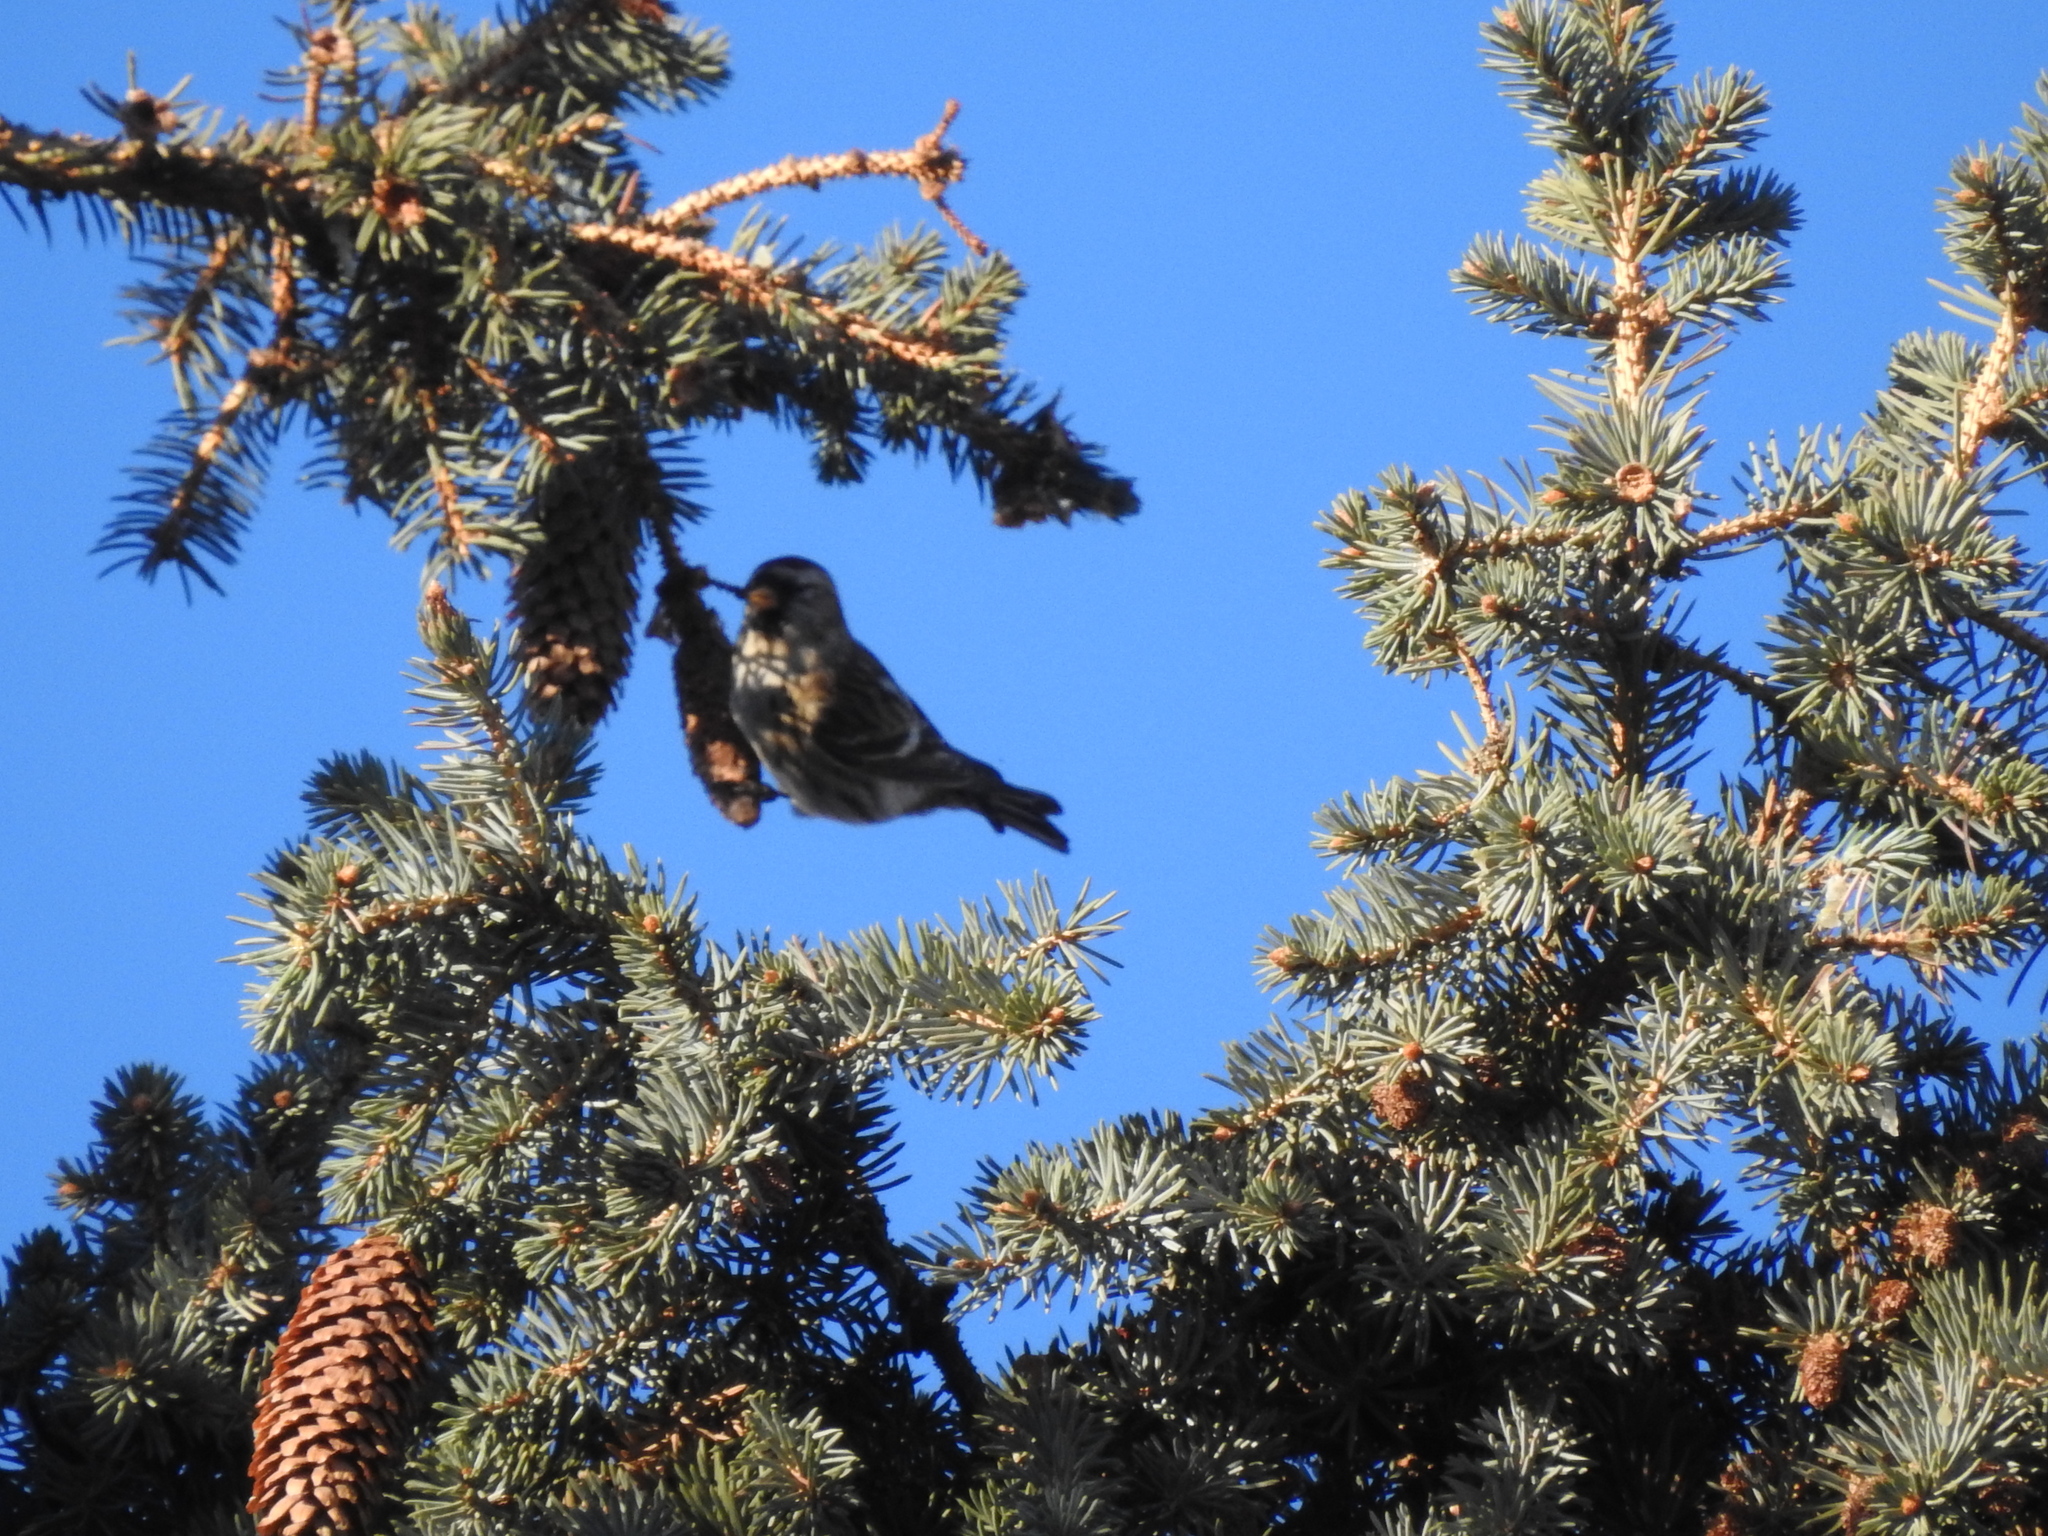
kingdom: Animalia
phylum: Chordata
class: Aves
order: Passeriformes
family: Fringillidae
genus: Acanthis
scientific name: Acanthis flammea
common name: Common redpoll
